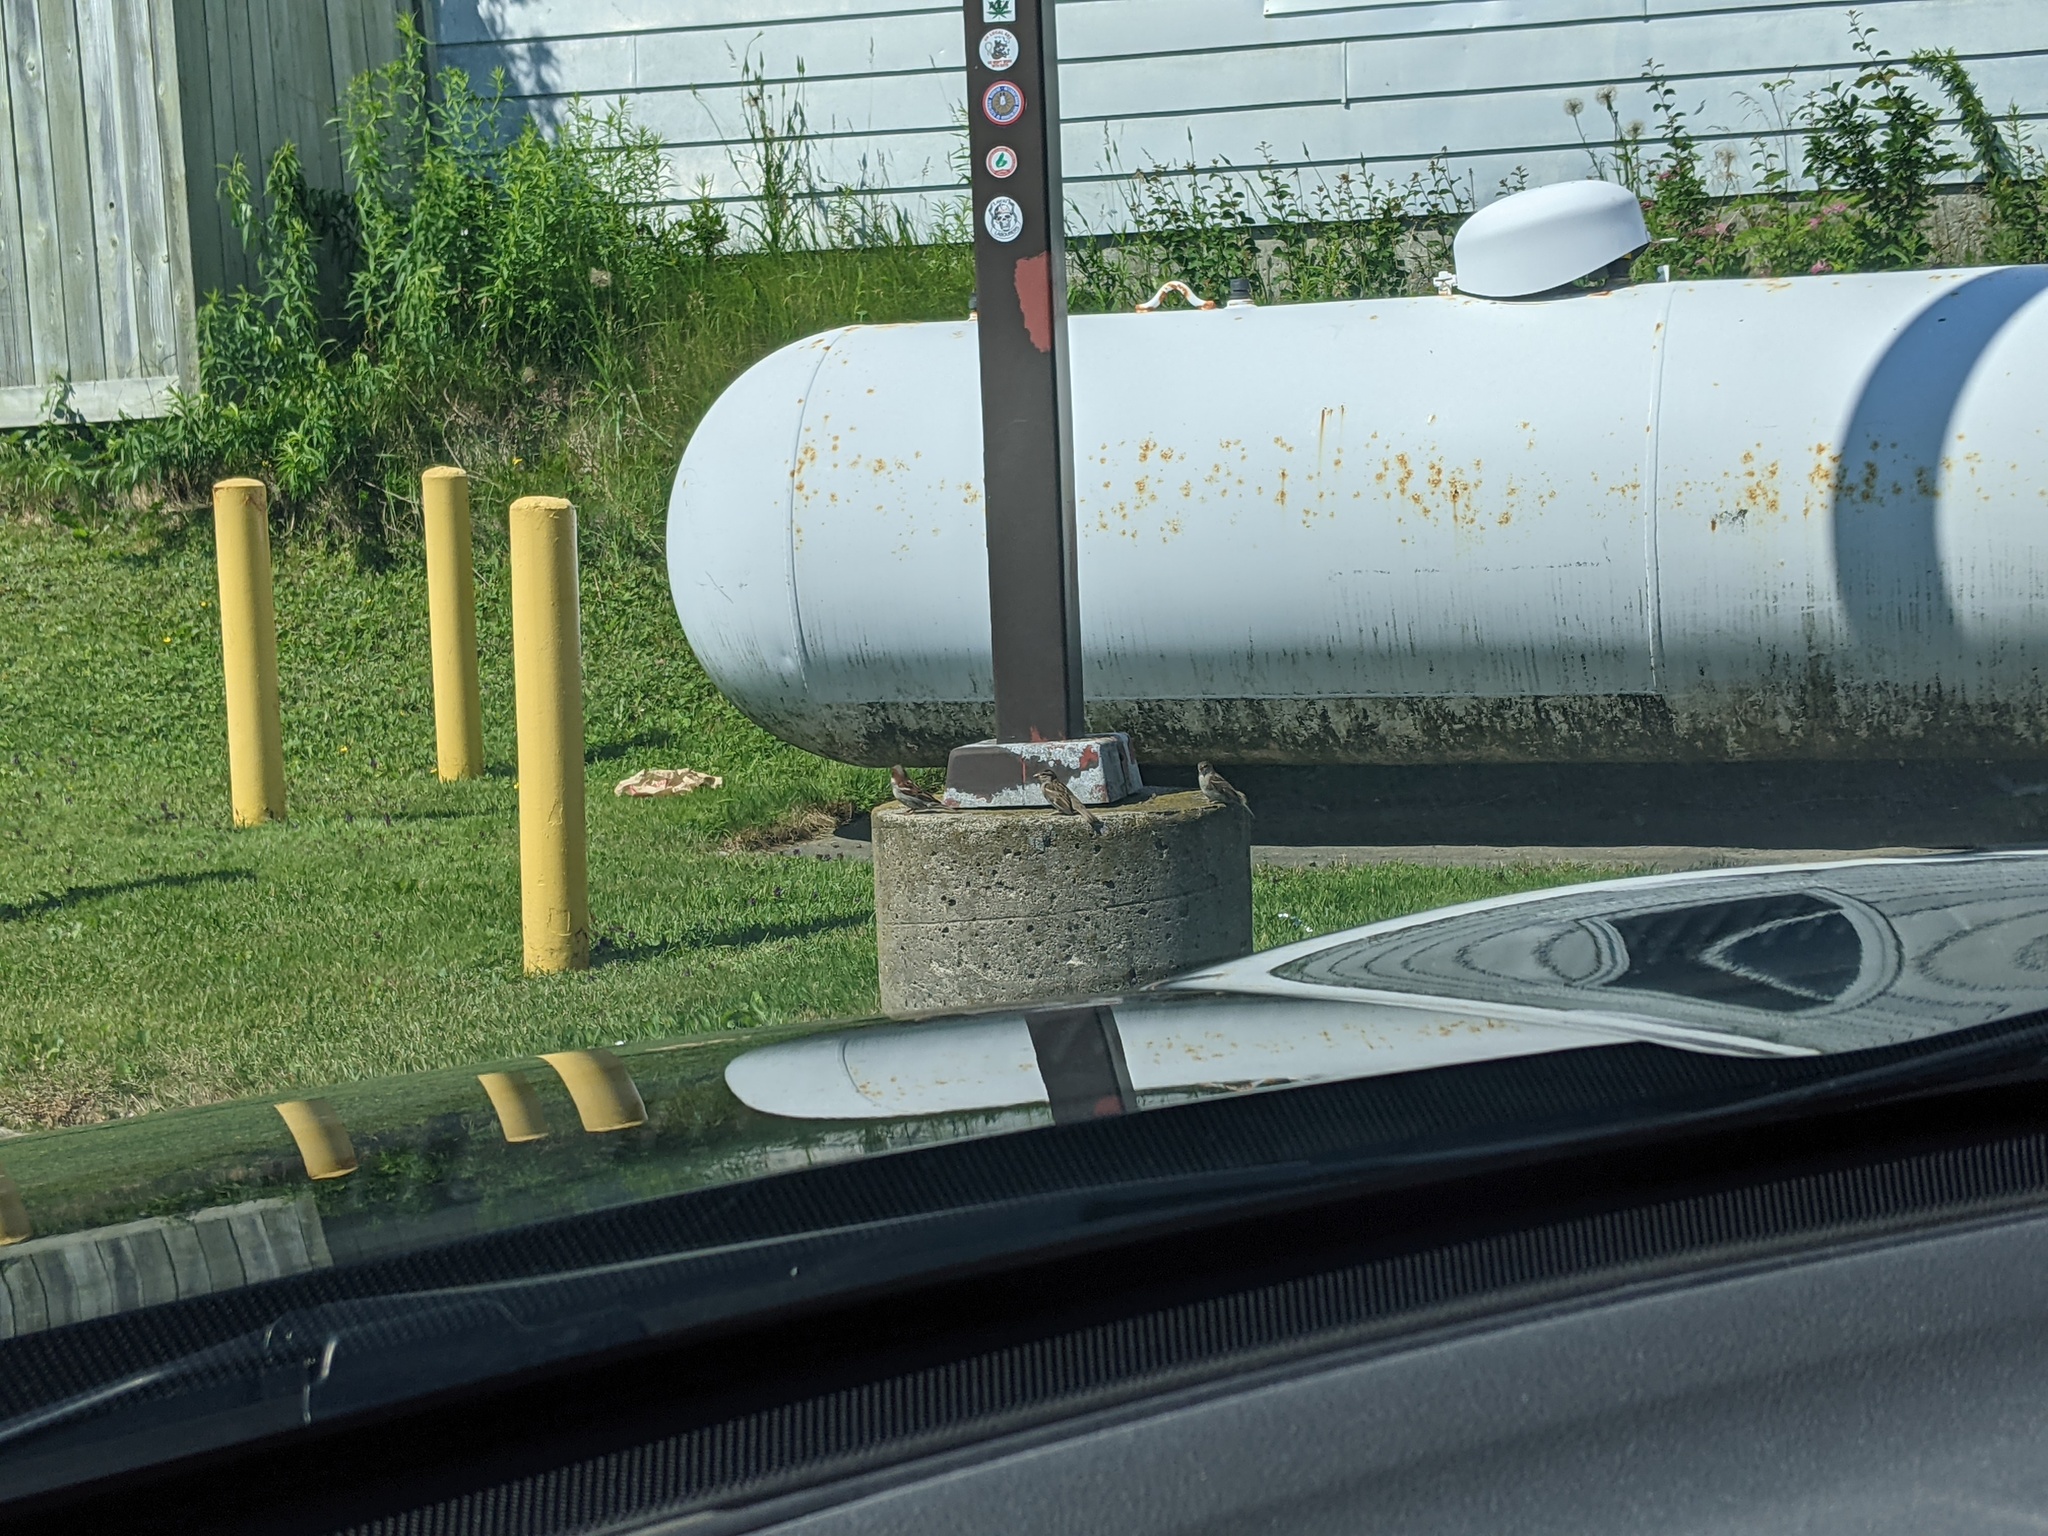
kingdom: Animalia
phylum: Chordata
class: Aves
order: Passeriformes
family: Passeridae
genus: Passer
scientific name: Passer domesticus
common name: House sparrow
